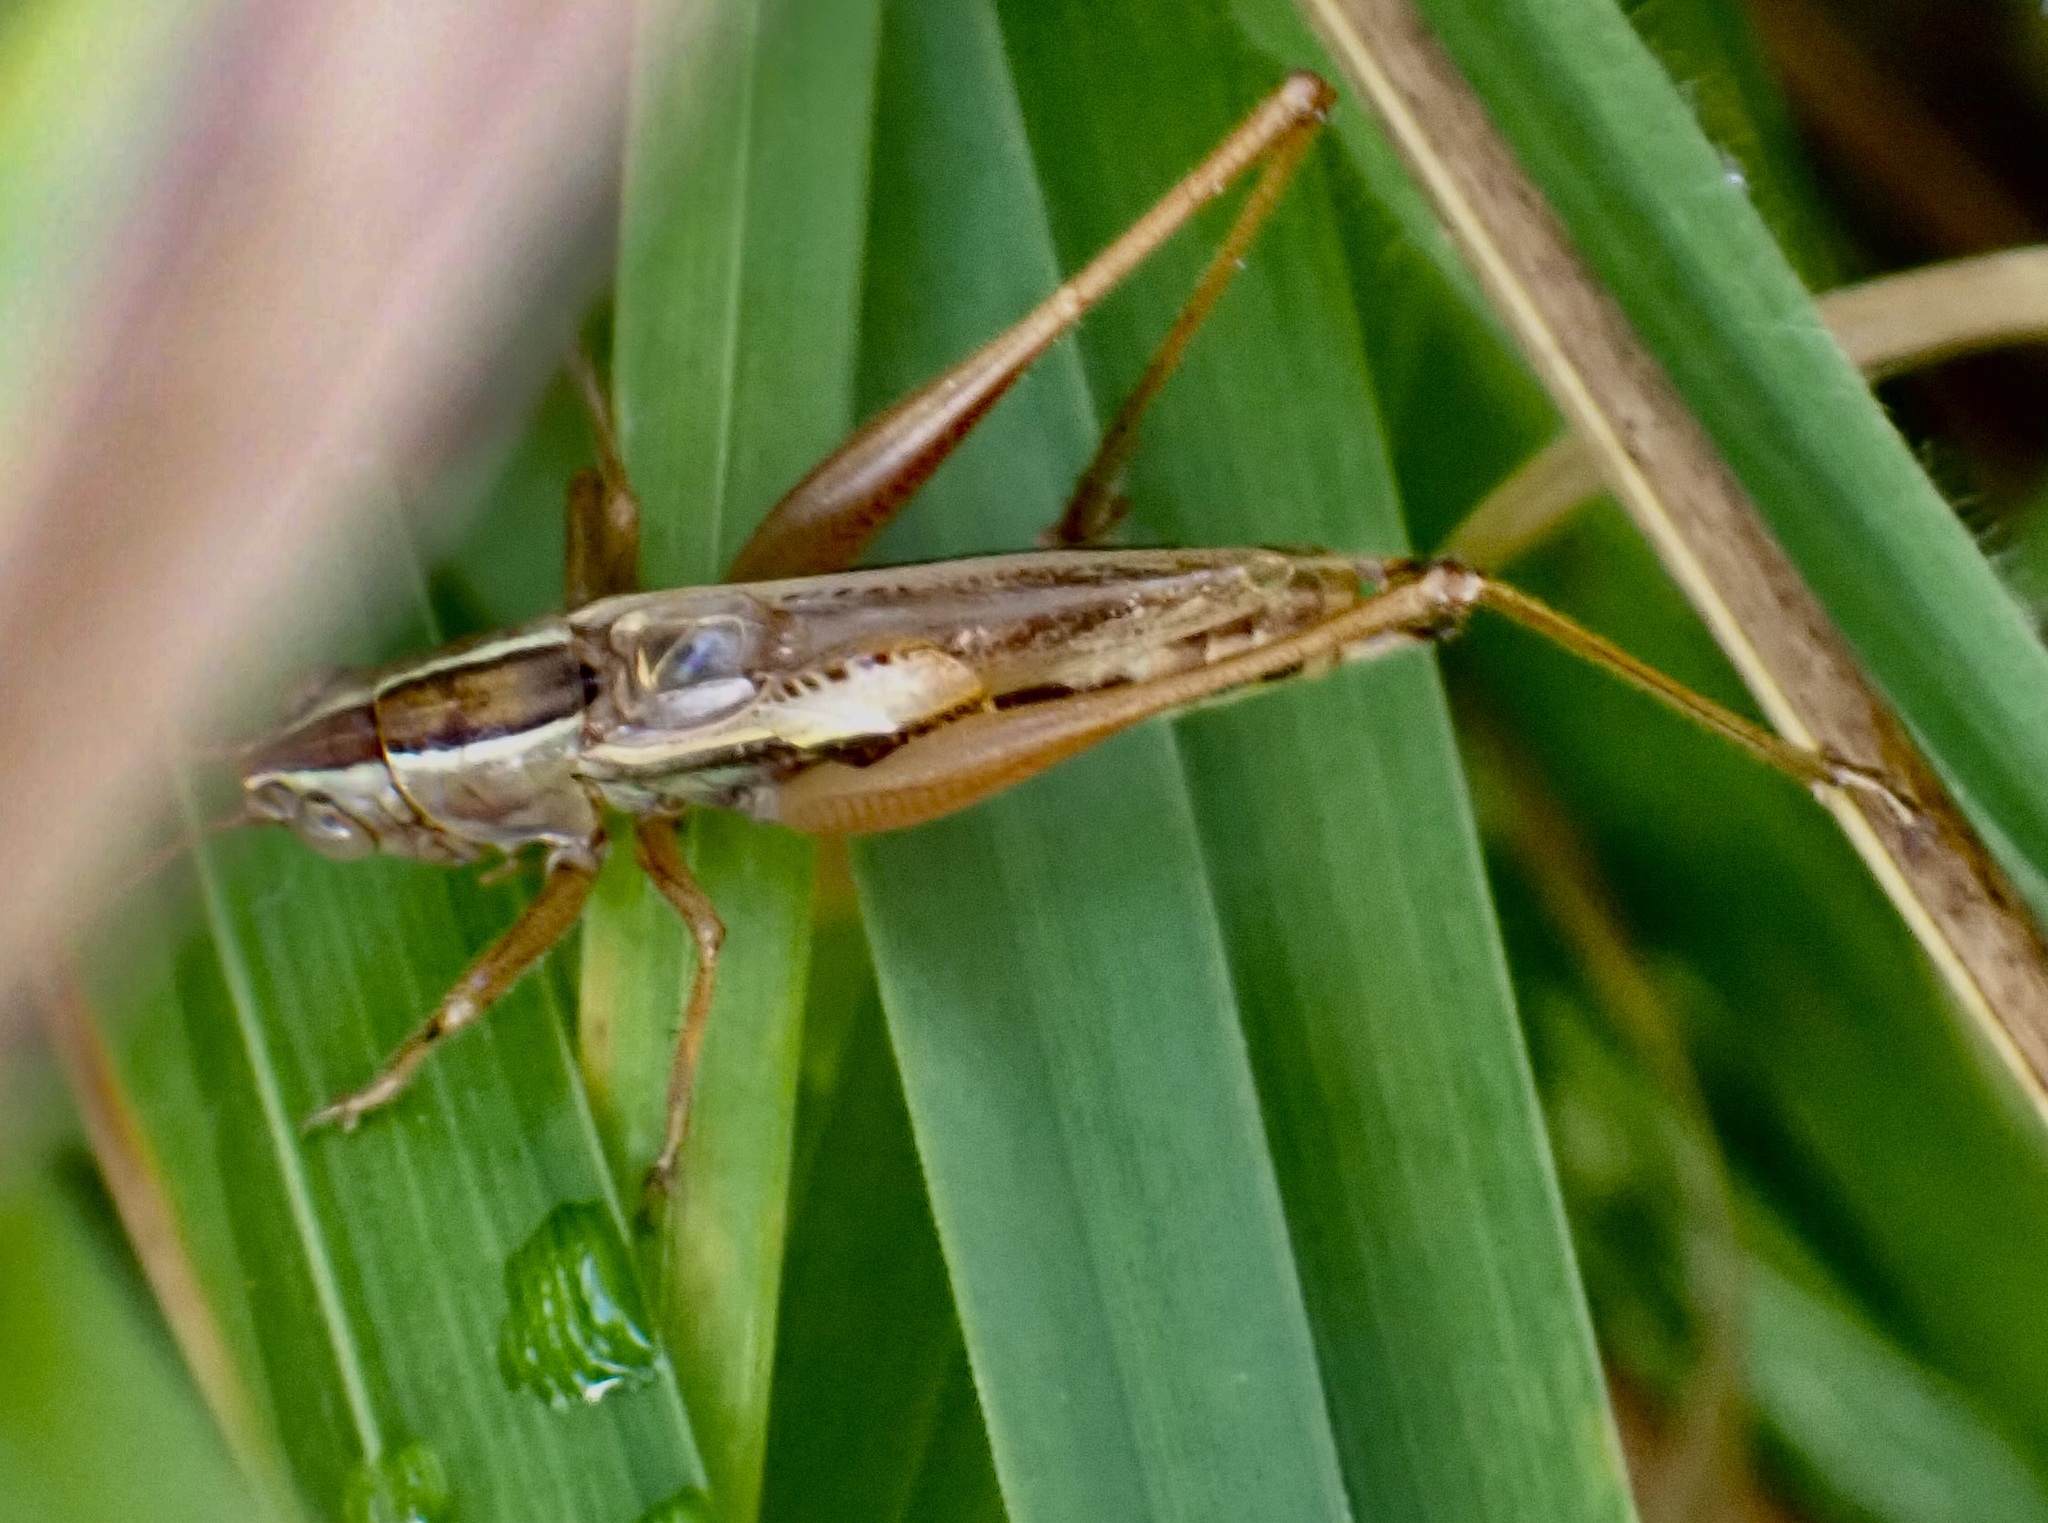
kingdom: Animalia
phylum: Arthropoda
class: Insecta
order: Orthoptera
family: Tettigoniidae
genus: Conocephalus
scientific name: Conocephalus albescens
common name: Whitish meadow katydid
